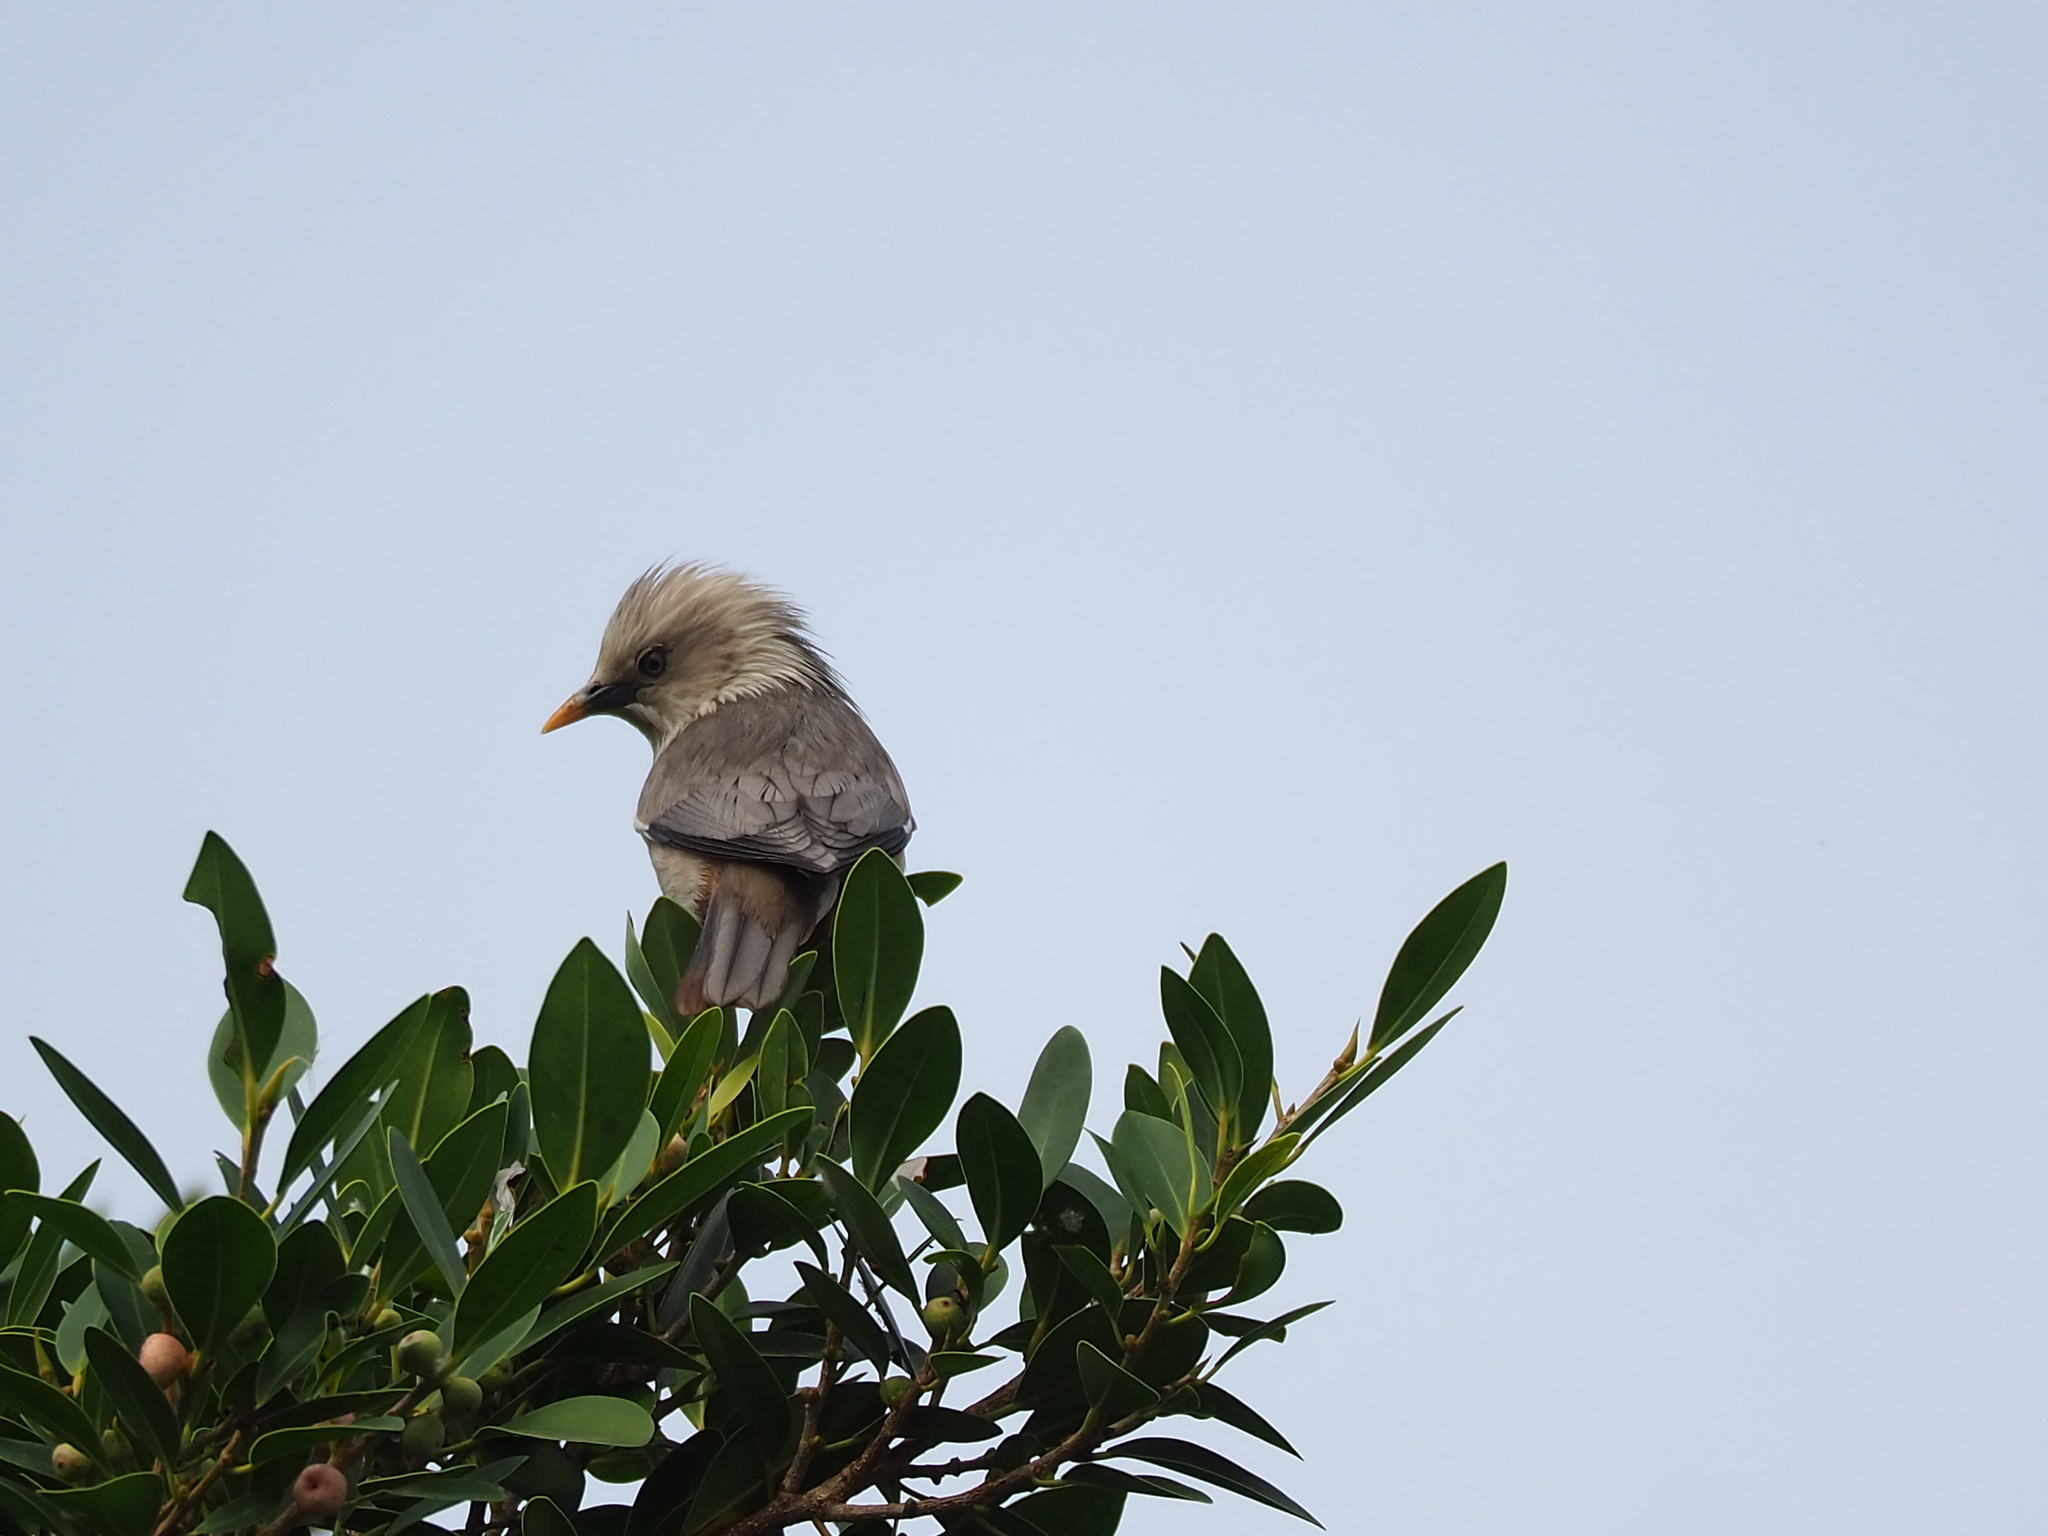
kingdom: Animalia
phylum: Chordata
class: Aves
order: Passeriformes
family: Sturnidae
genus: Sturnia
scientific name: Sturnia malabarica
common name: Chestnut-tailed starling
